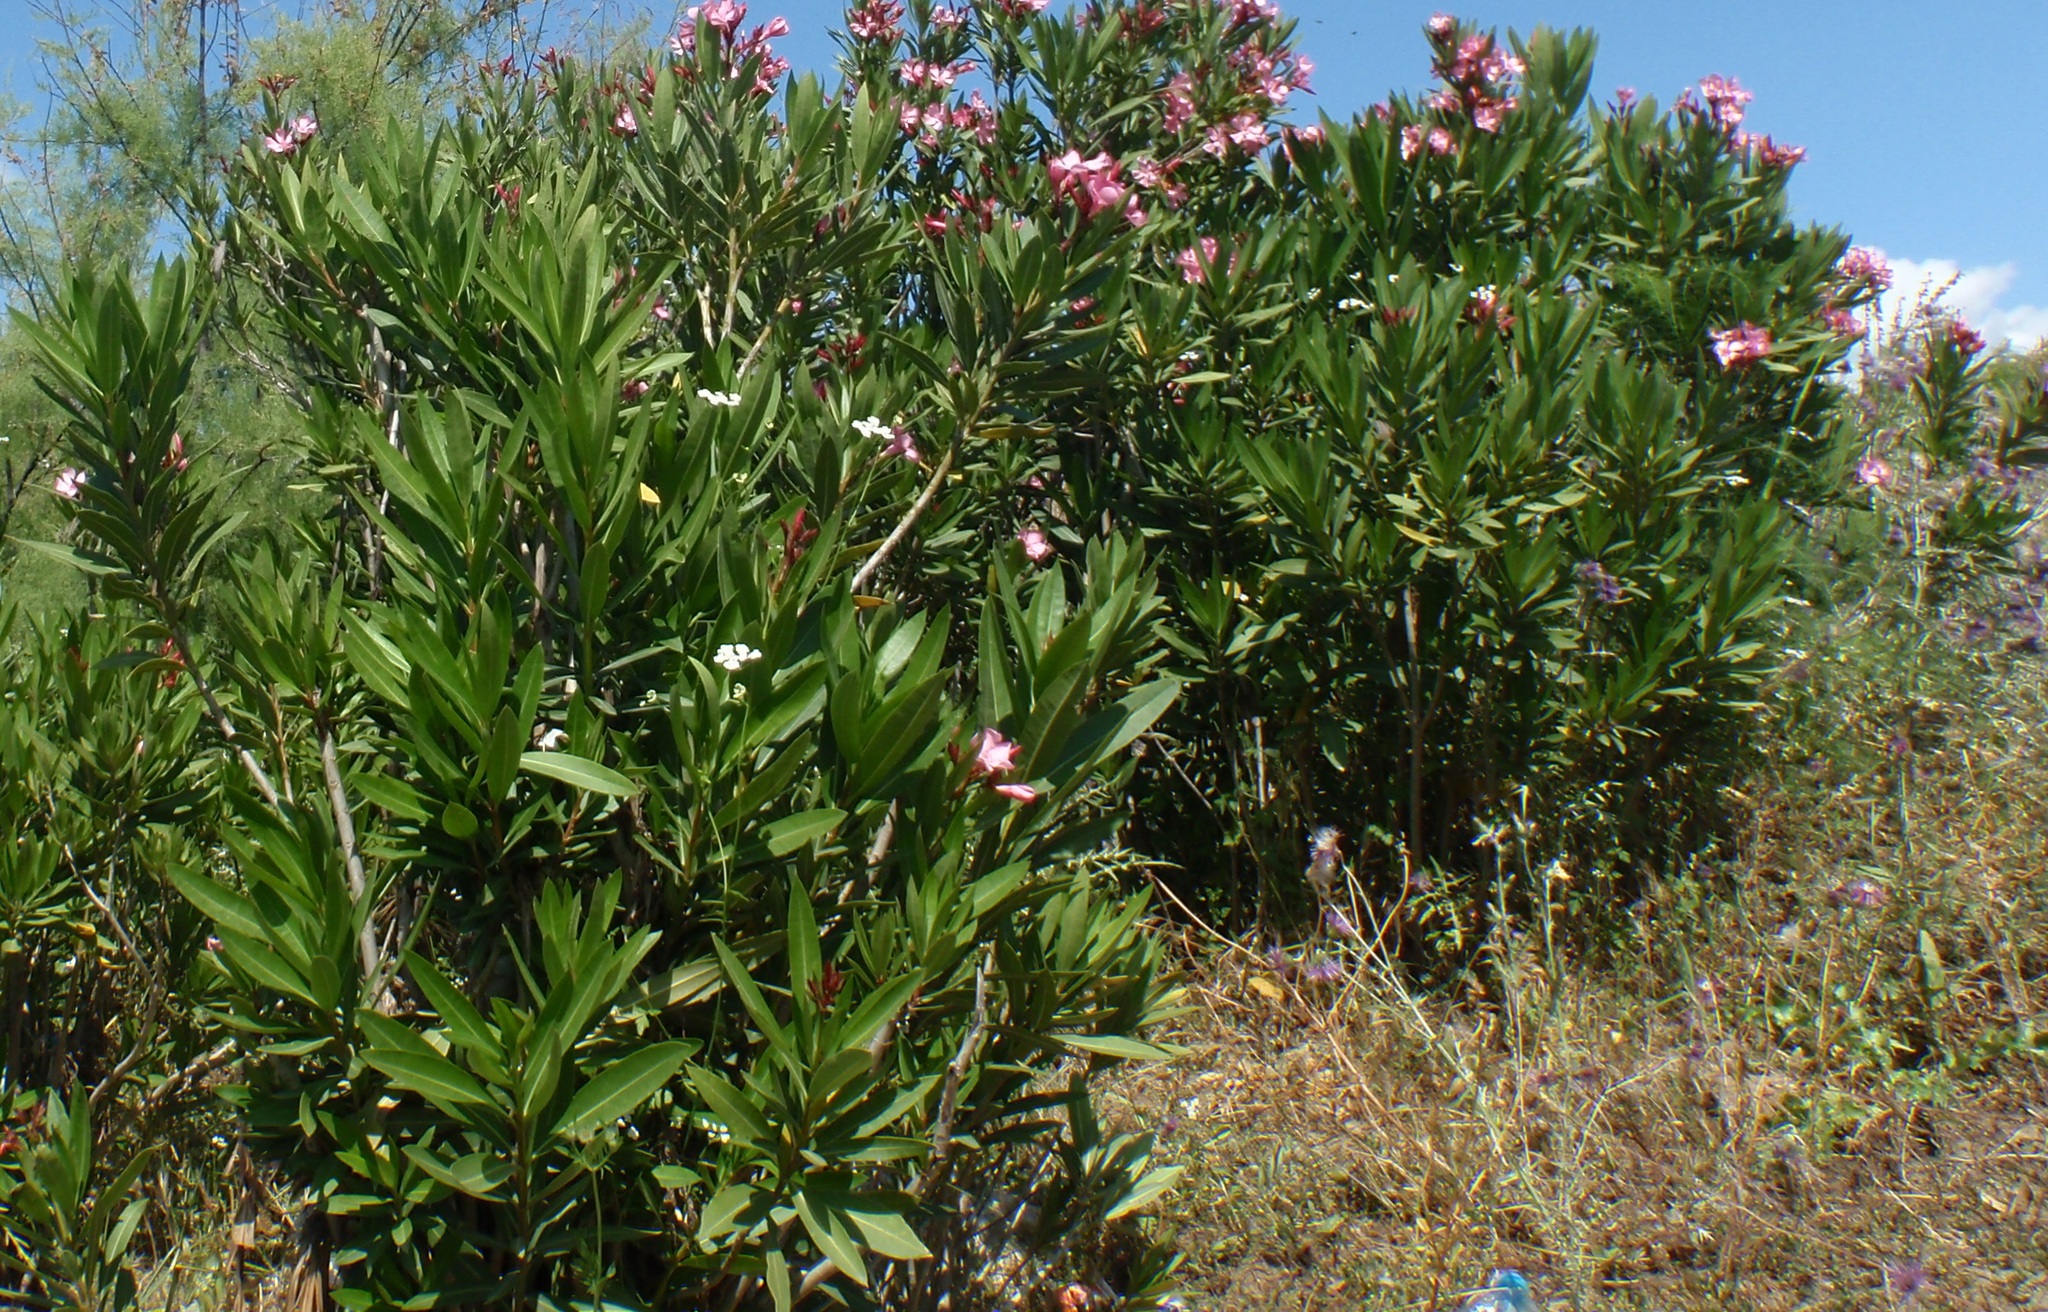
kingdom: Plantae
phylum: Tracheophyta
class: Magnoliopsida
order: Gentianales
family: Apocynaceae
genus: Nerium
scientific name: Nerium oleander
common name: Oleander
